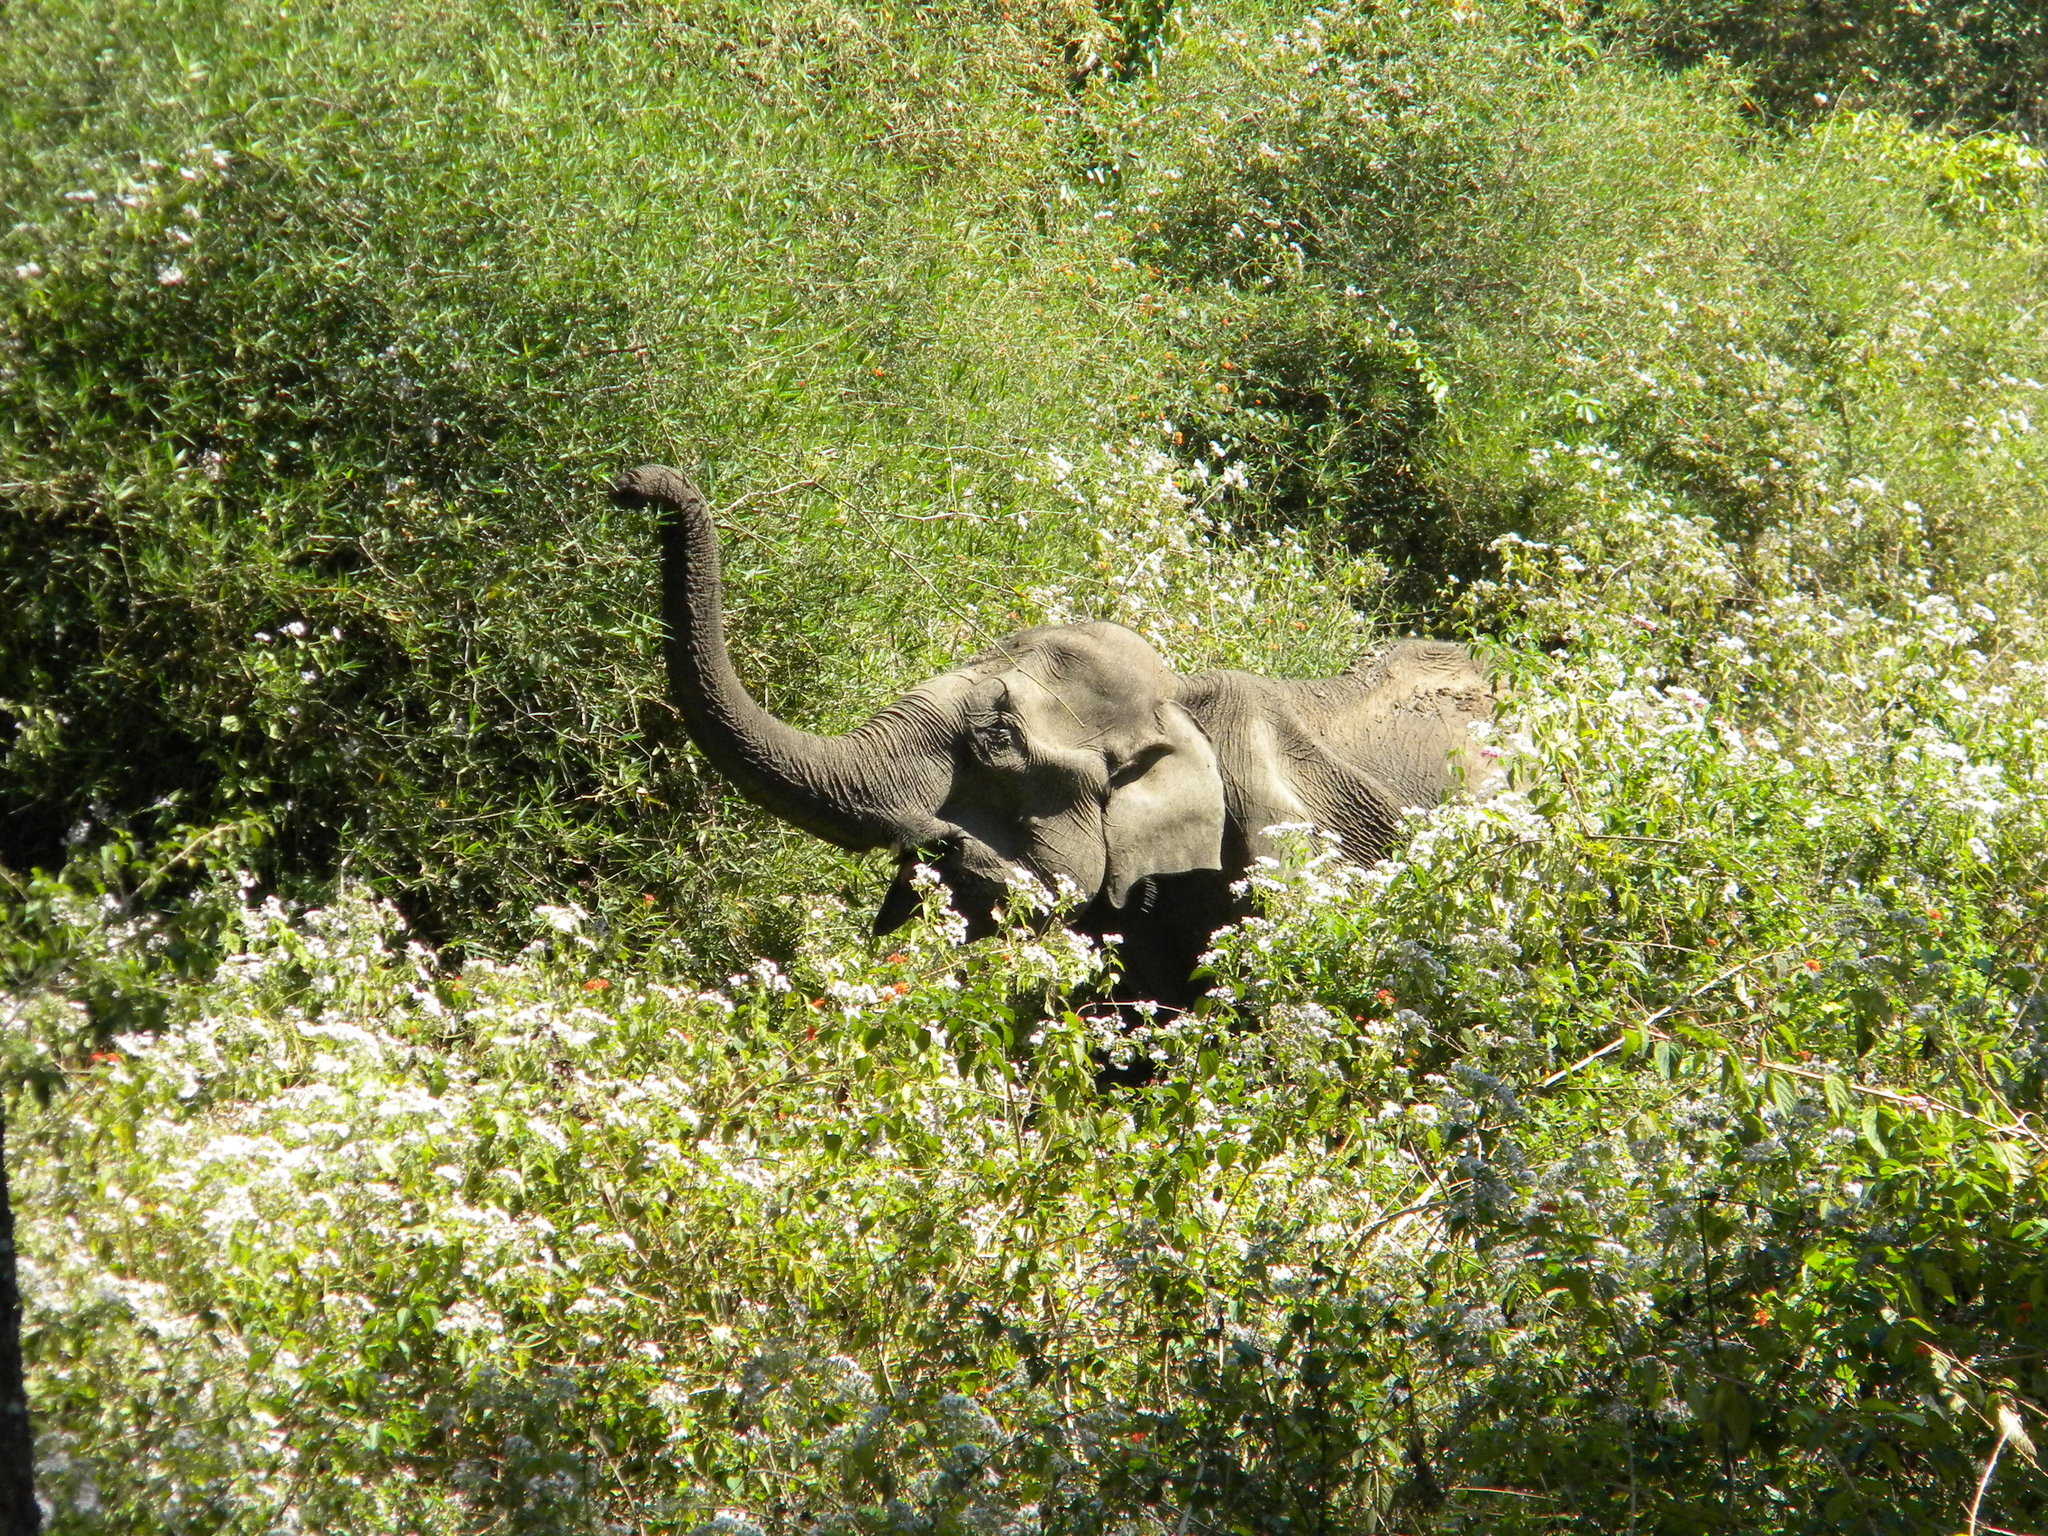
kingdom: Animalia
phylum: Chordata
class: Mammalia
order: Proboscidea
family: Elephantidae
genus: Elephas
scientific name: Elephas maximus
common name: Asian elephant
